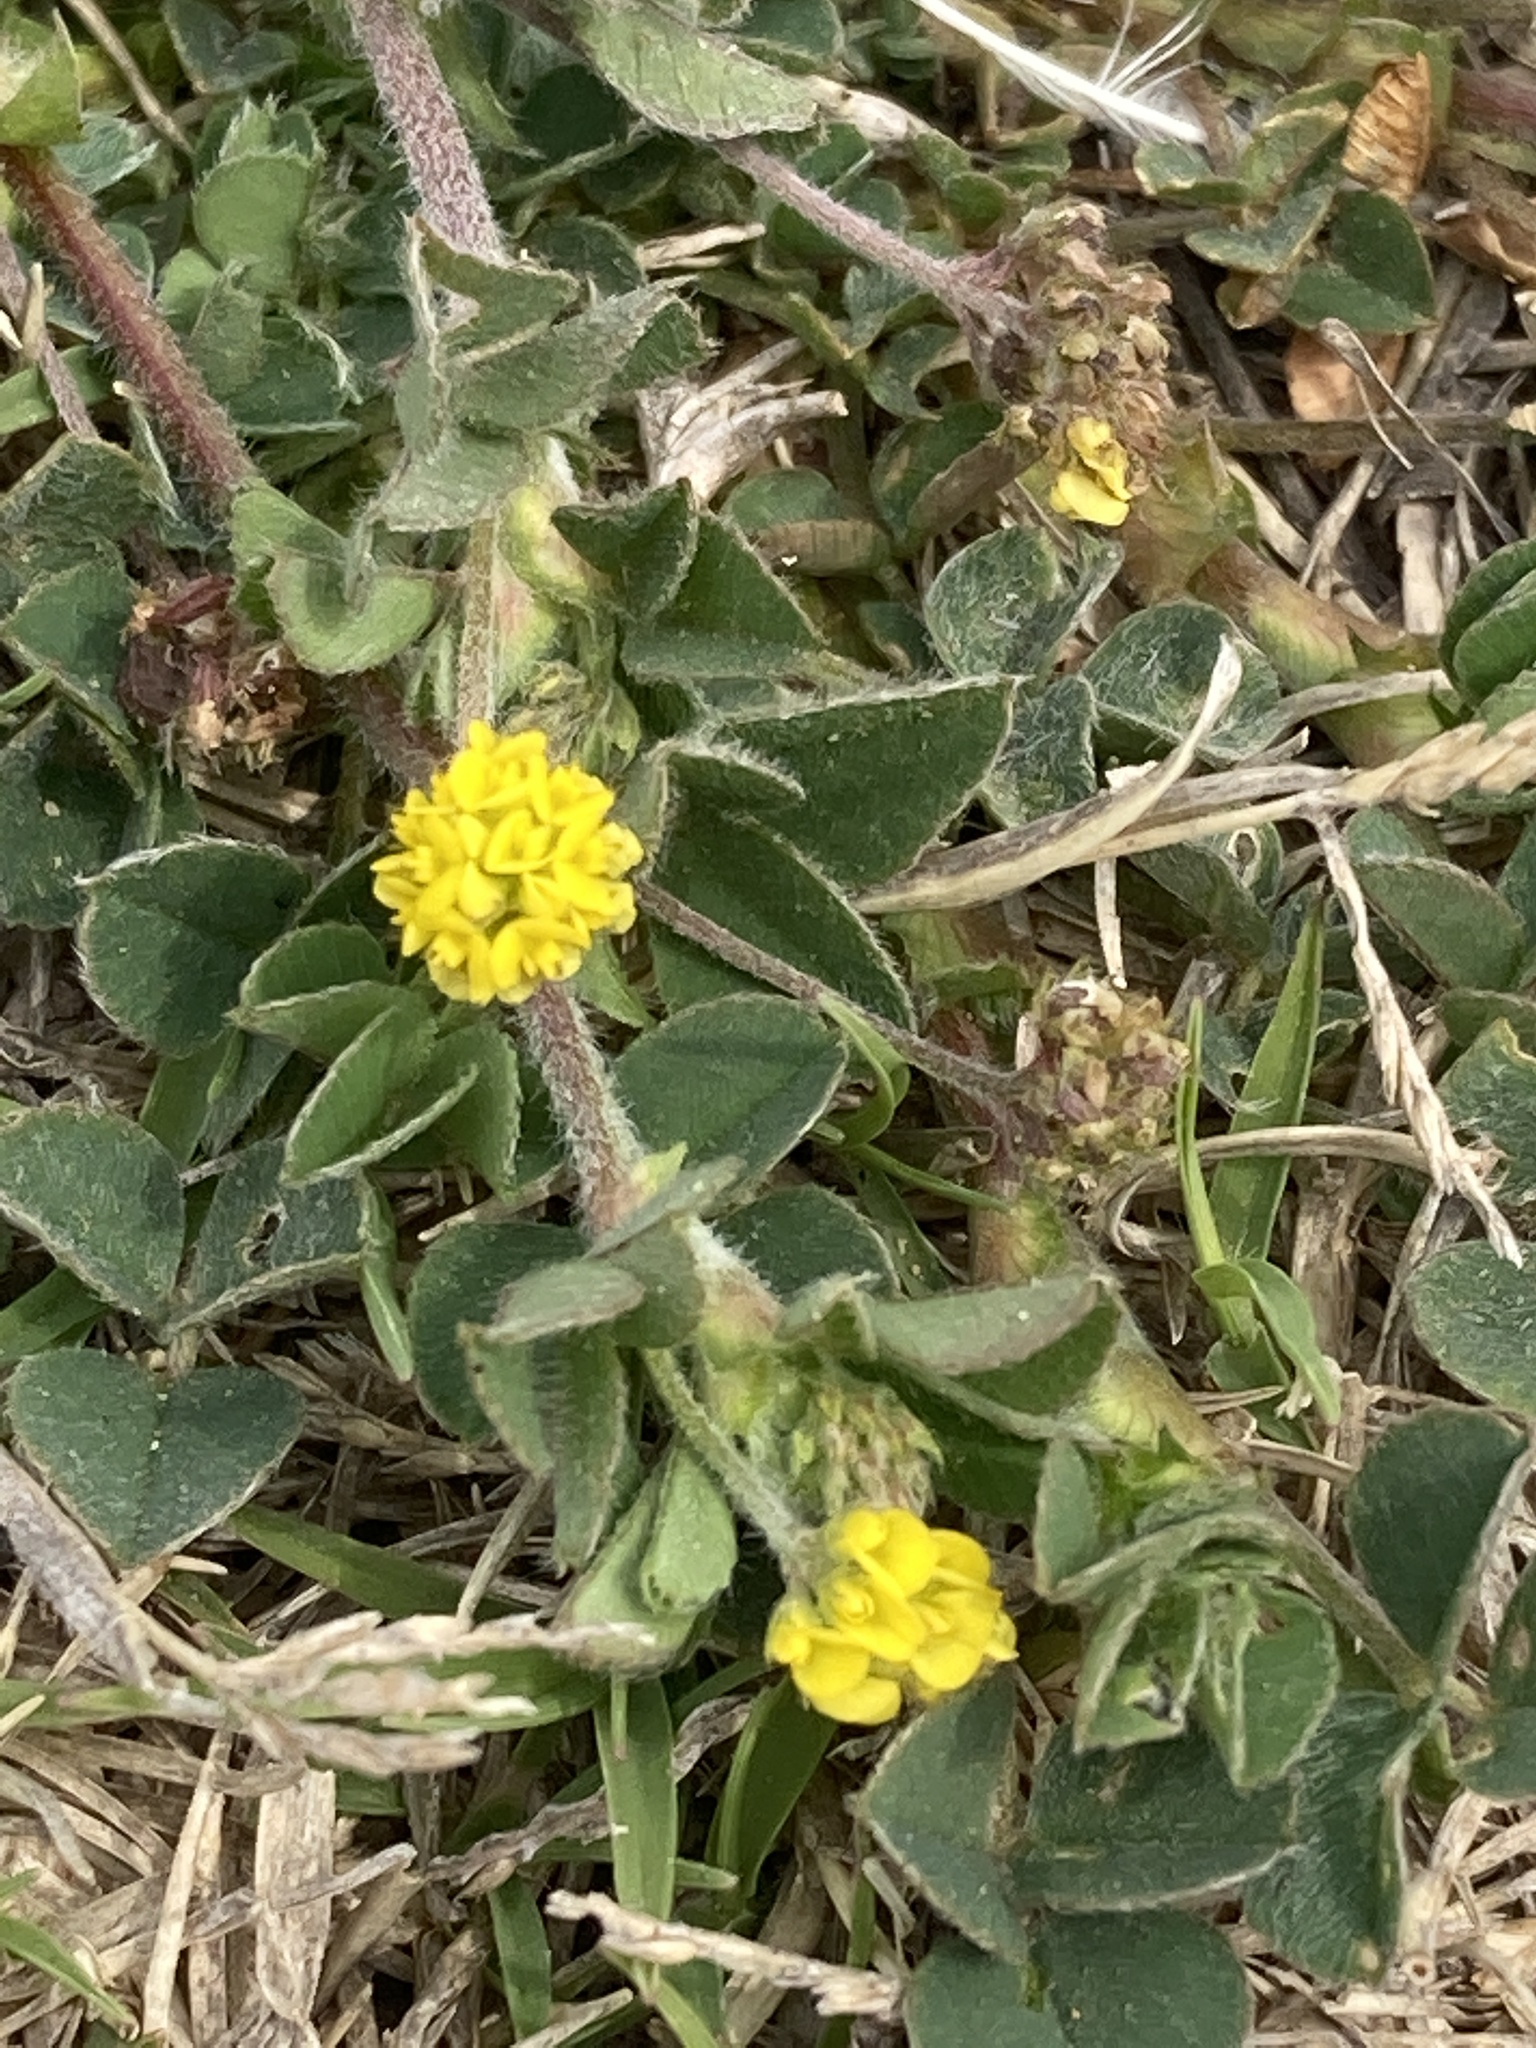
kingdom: Plantae
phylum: Tracheophyta
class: Magnoliopsida
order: Fabales
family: Fabaceae
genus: Medicago
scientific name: Medicago lupulina
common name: Black medick
